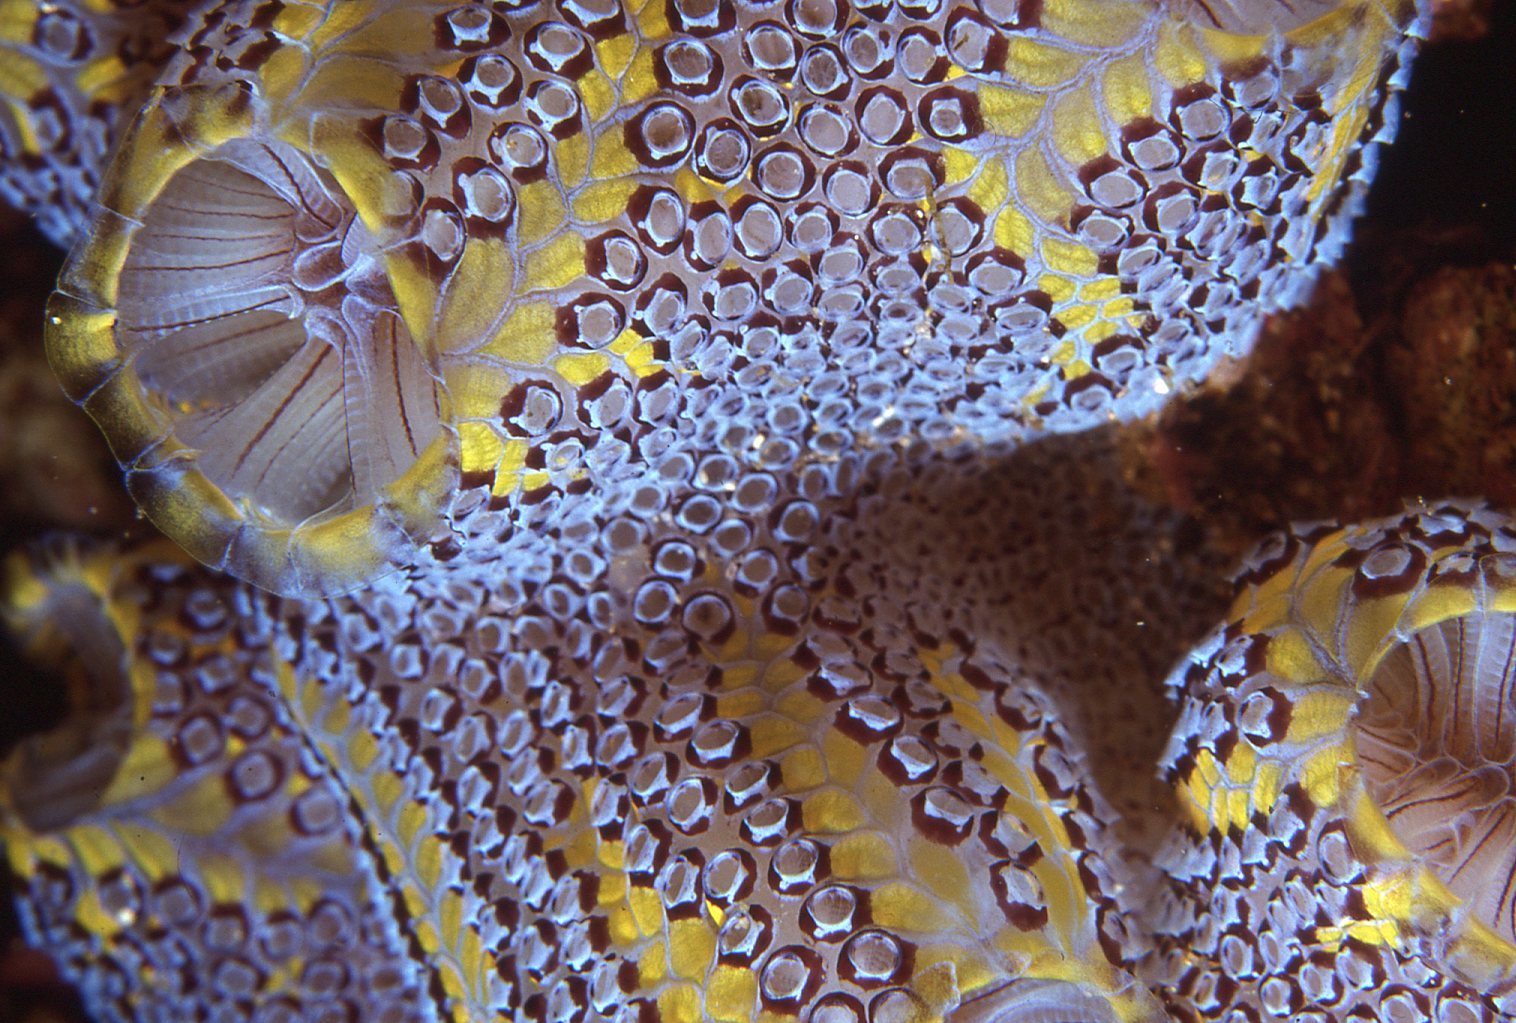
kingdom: Animalia
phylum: Chordata
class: Ascidiacea
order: Stolidobranchia
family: Styelidae
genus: Botrylloides
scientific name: Botrylloides magnicoecus
